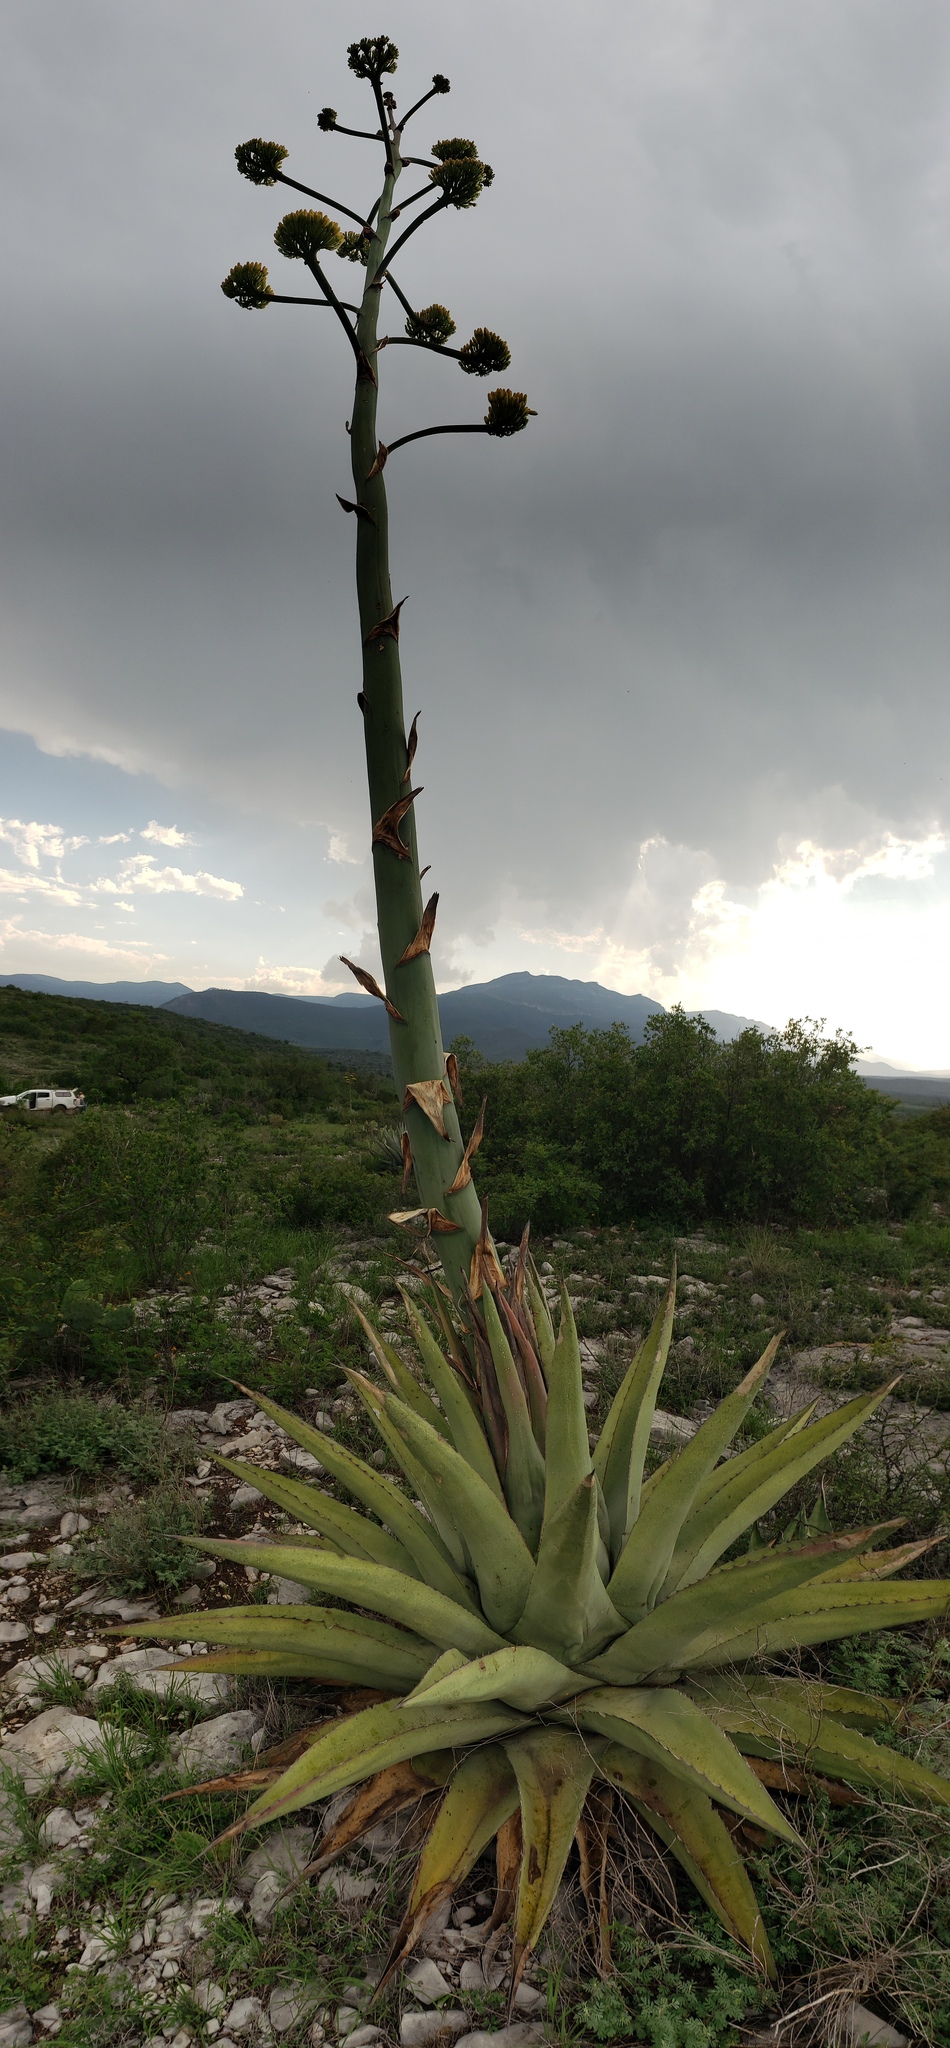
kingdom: Plantae
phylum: Tracheophyta
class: Liliopsida
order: Asparagales
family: Asparagaceae
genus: Agave
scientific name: Agave asperrima
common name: Rough agave
